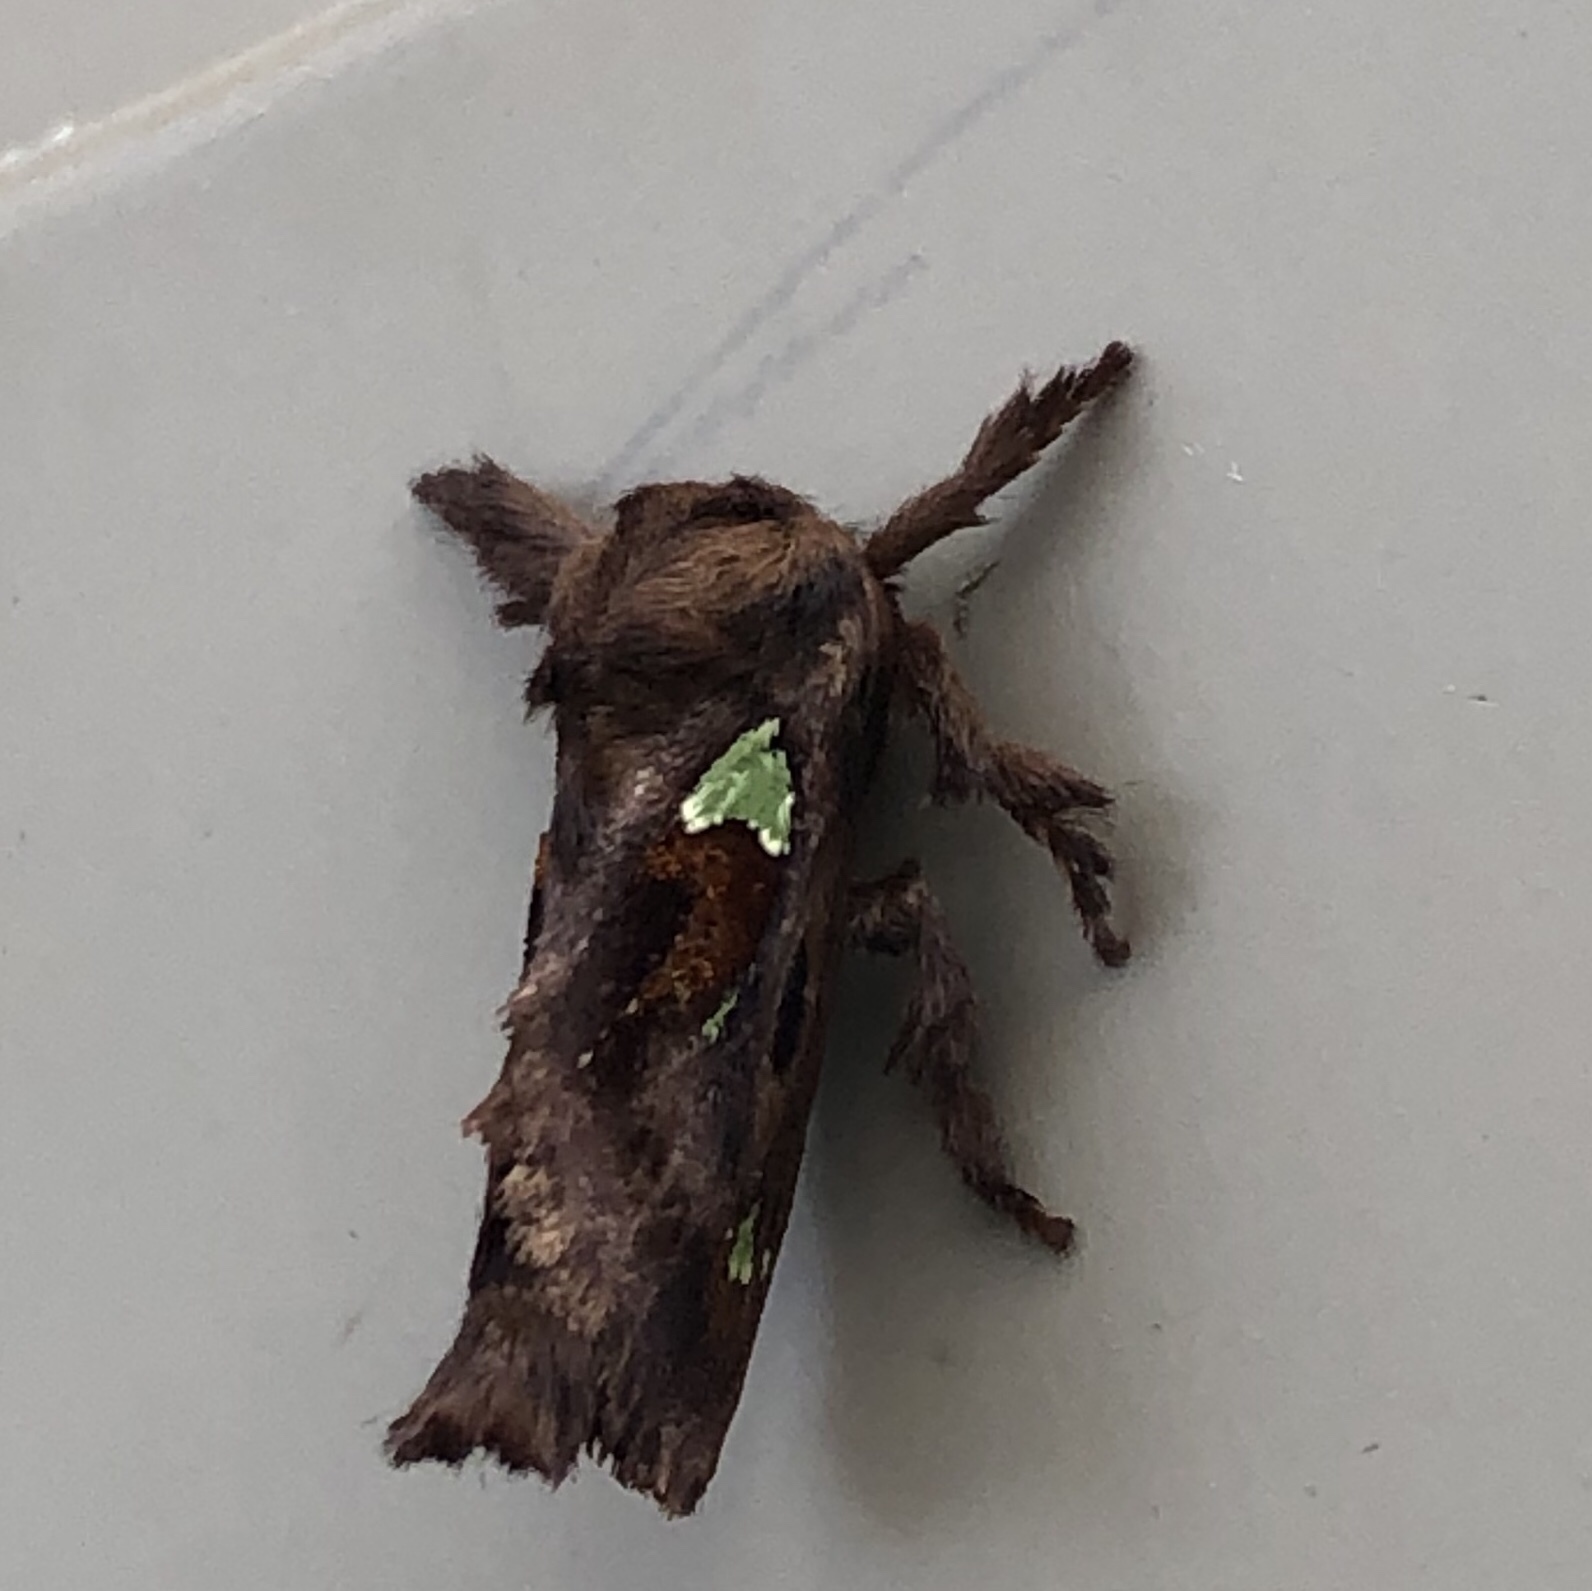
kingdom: Animalia
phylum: Arthropoda
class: Insecta
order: Lepidoptera
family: Limacodidae
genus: Euclea
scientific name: Euclea delphinii
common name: Spiny oak-slug moth
